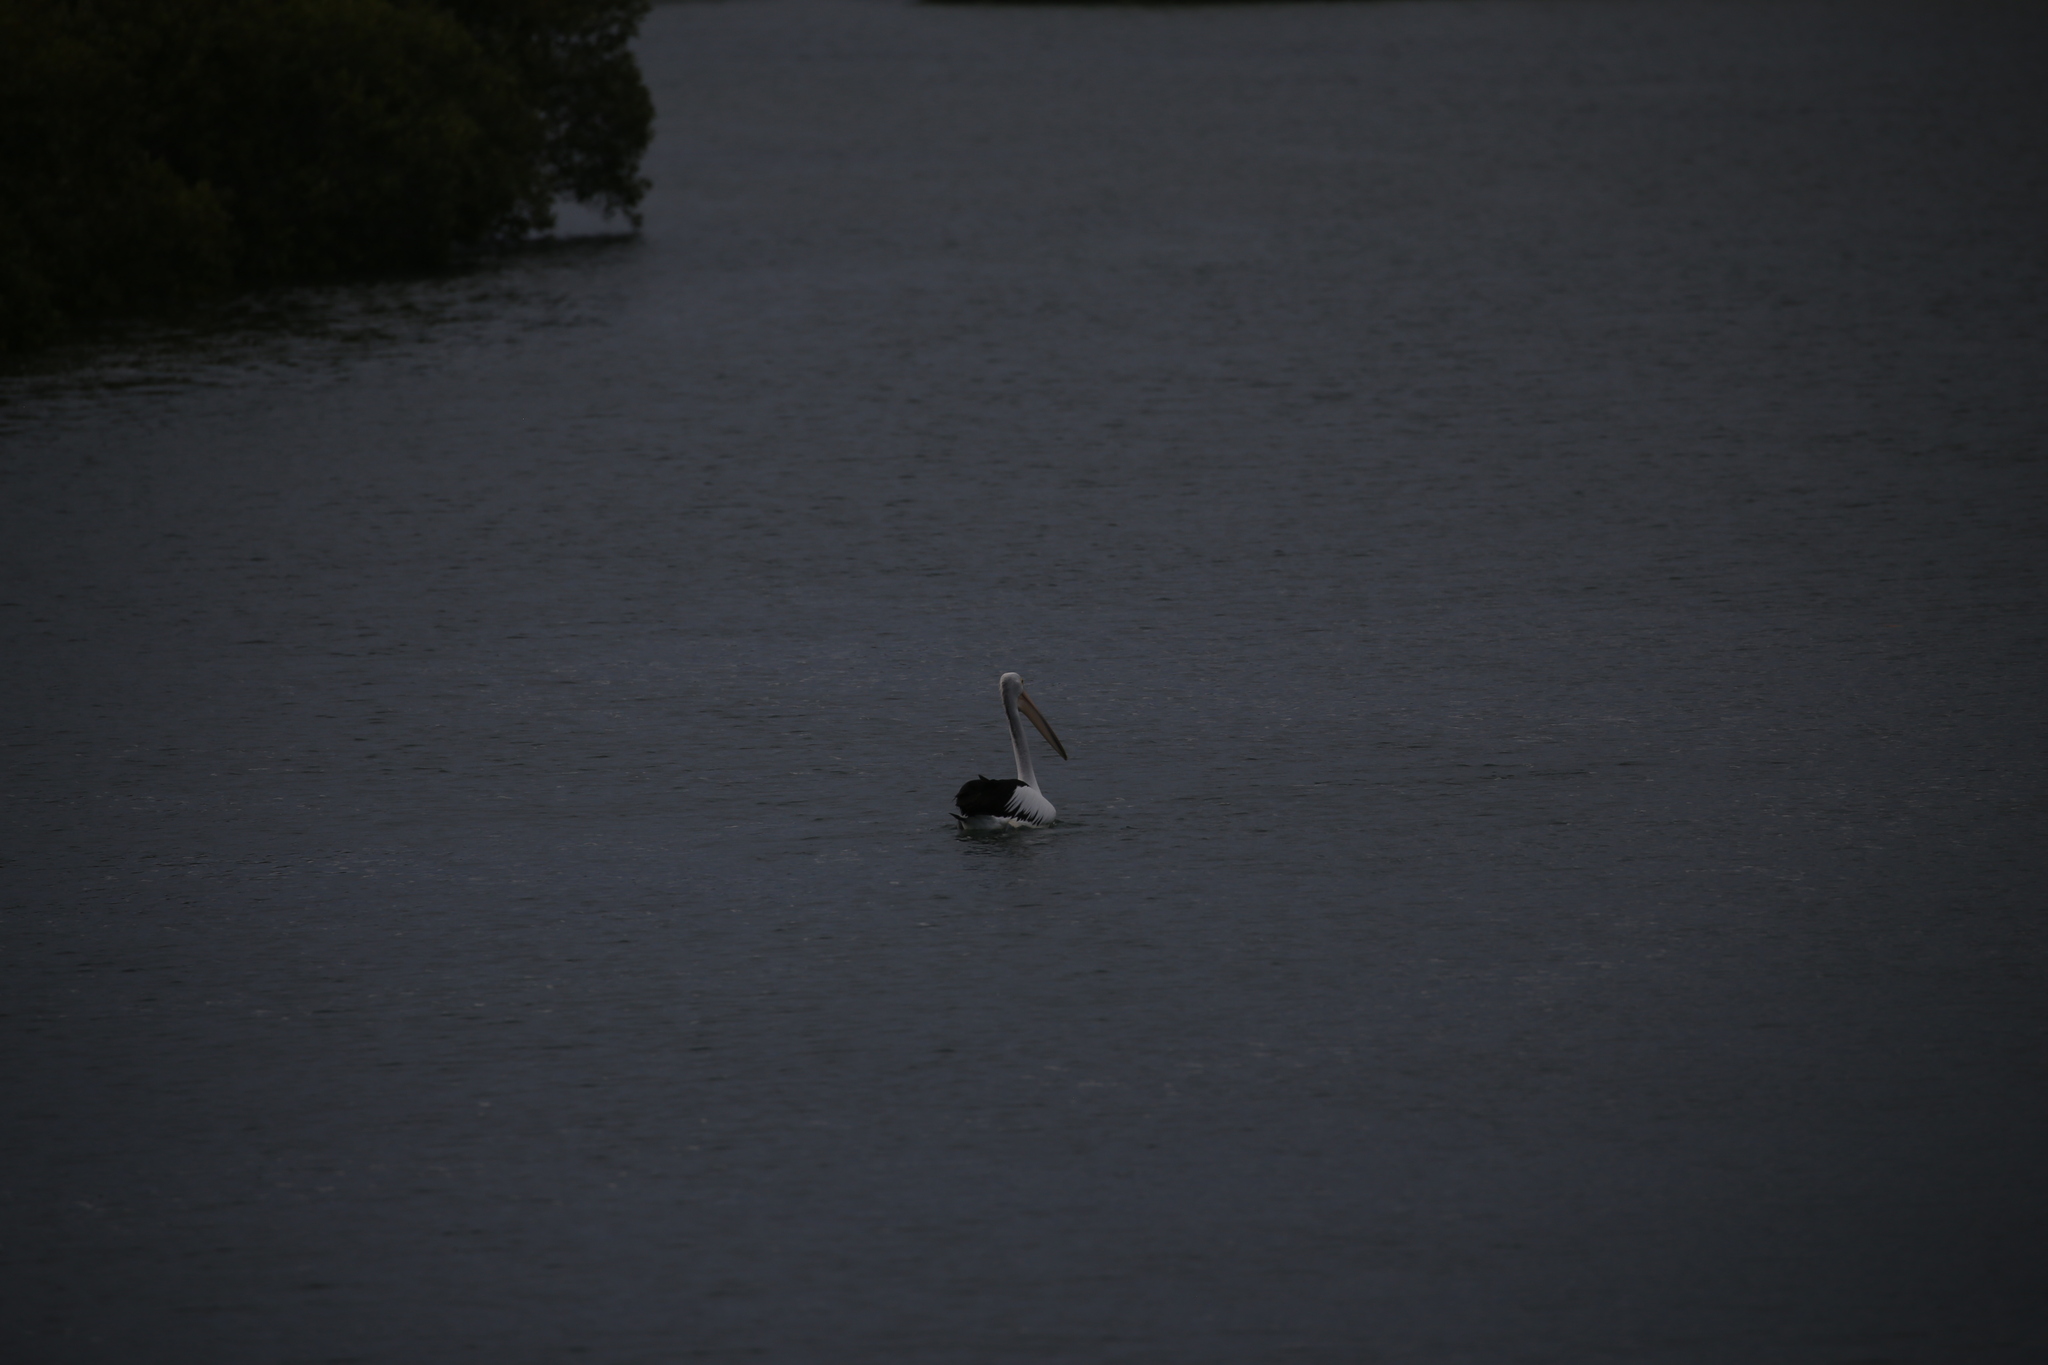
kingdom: Animalia
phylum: Chordata
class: Aves
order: Pelecaniformes
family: Pelecanidae
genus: Pelecanus
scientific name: Pelecanus conspicillatus
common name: Australian pelican
